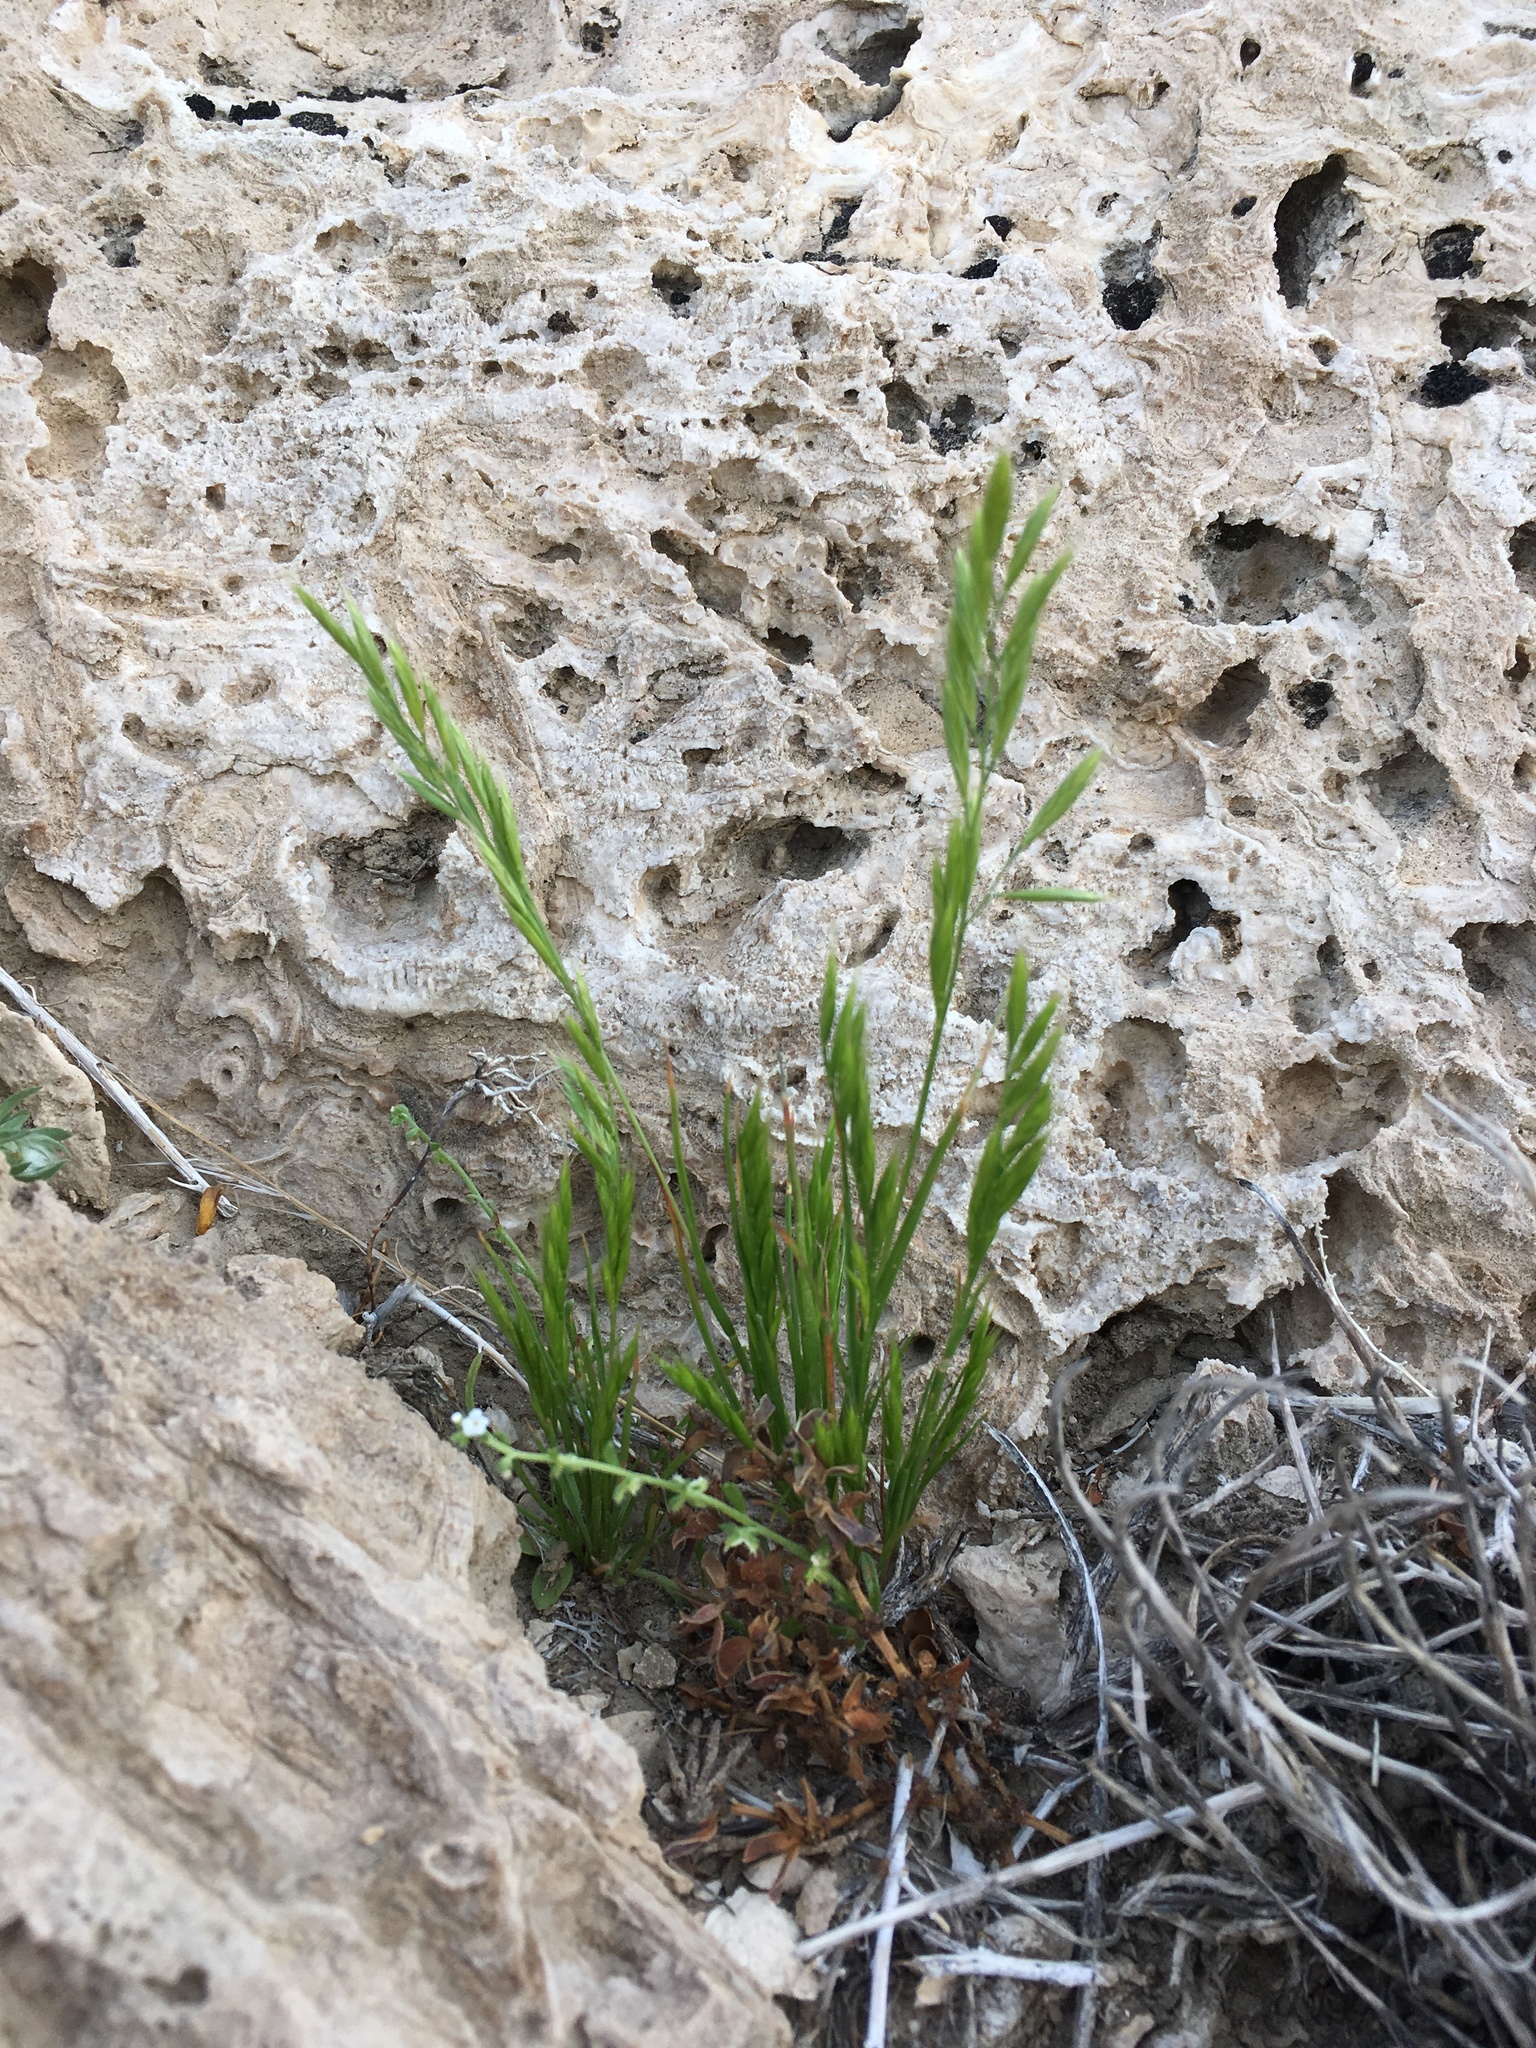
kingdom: Plantae
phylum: Tracheophyta
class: Liliopsida
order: Poales
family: Poaceae
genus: Festuca
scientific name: Festuca octoflora
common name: Sixweeks grass
